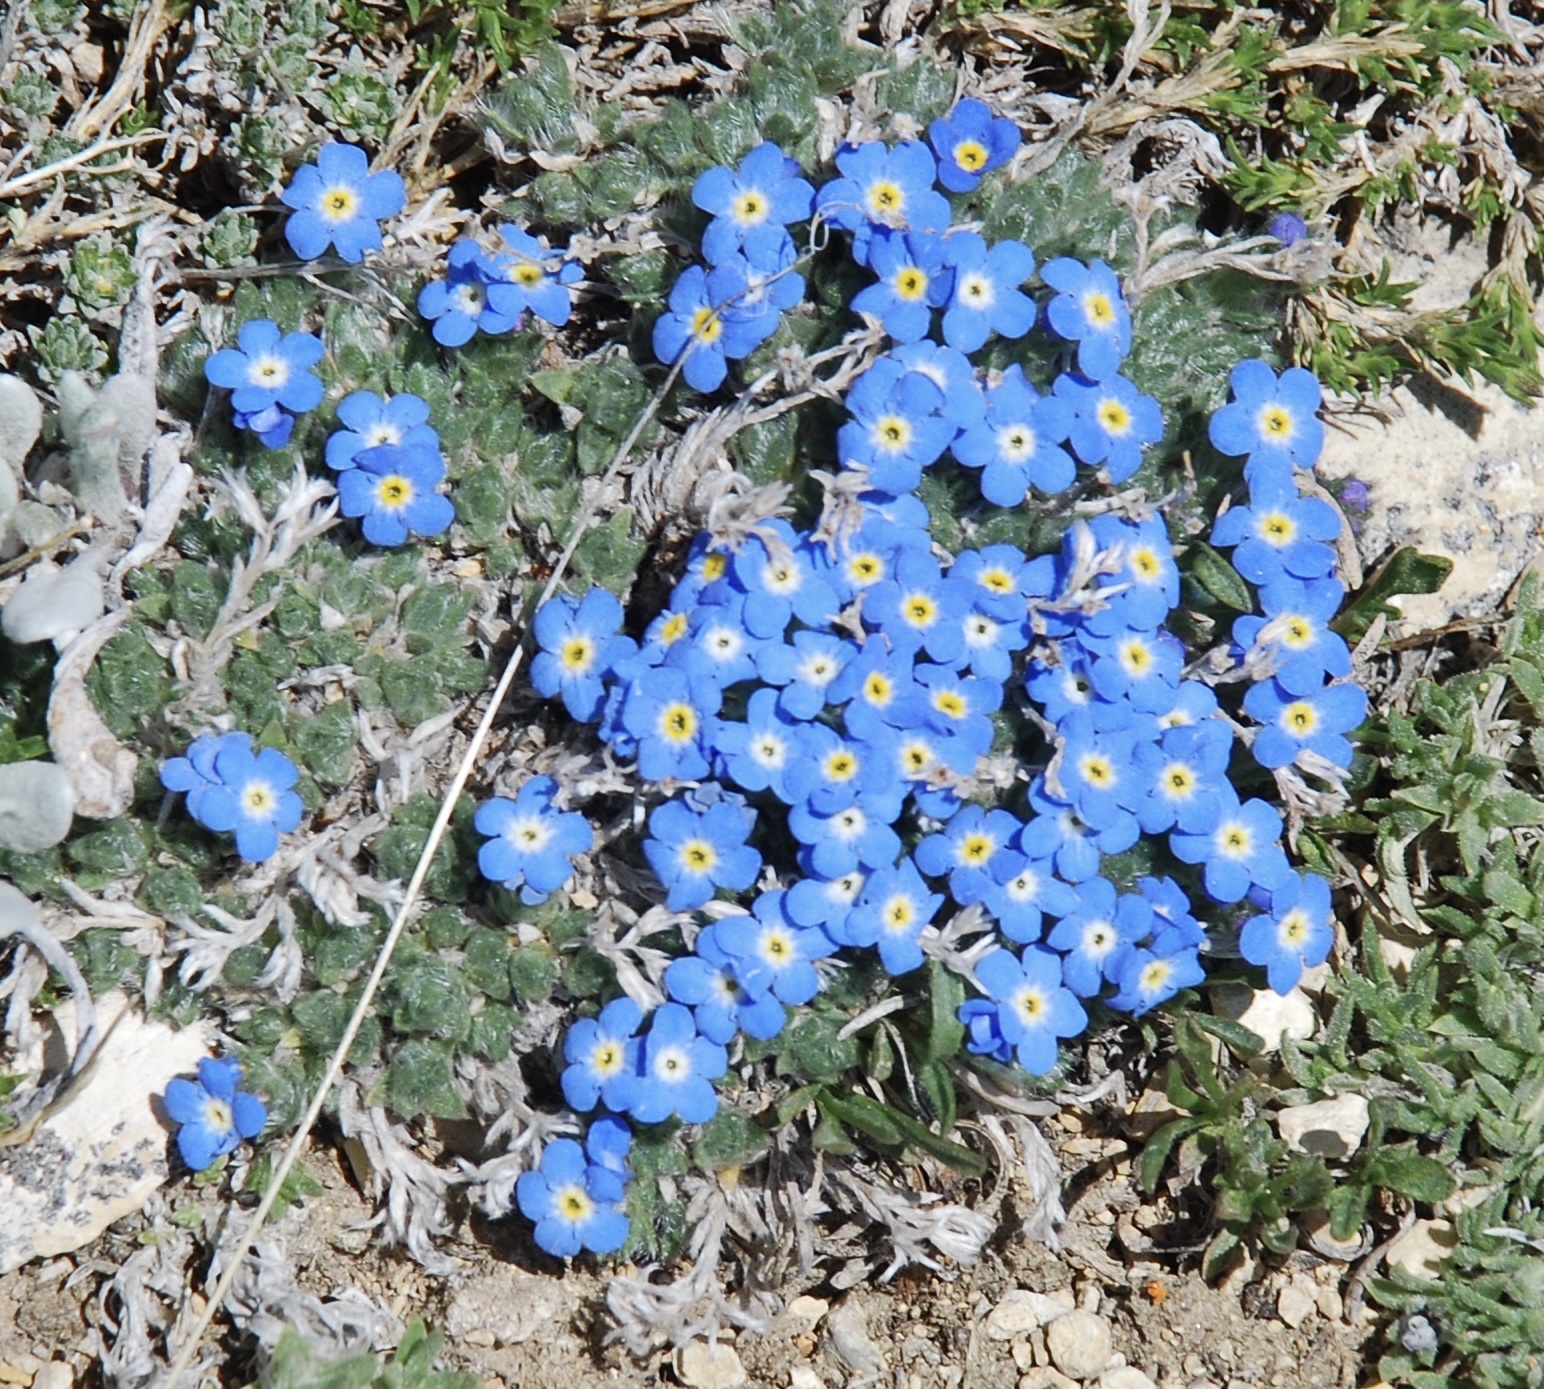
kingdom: Plantae
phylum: Tracheophyta
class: Magnoliopsida
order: Boraginales
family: Boraginaceae
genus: Eritrichium
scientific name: Eritrichium argenteum
